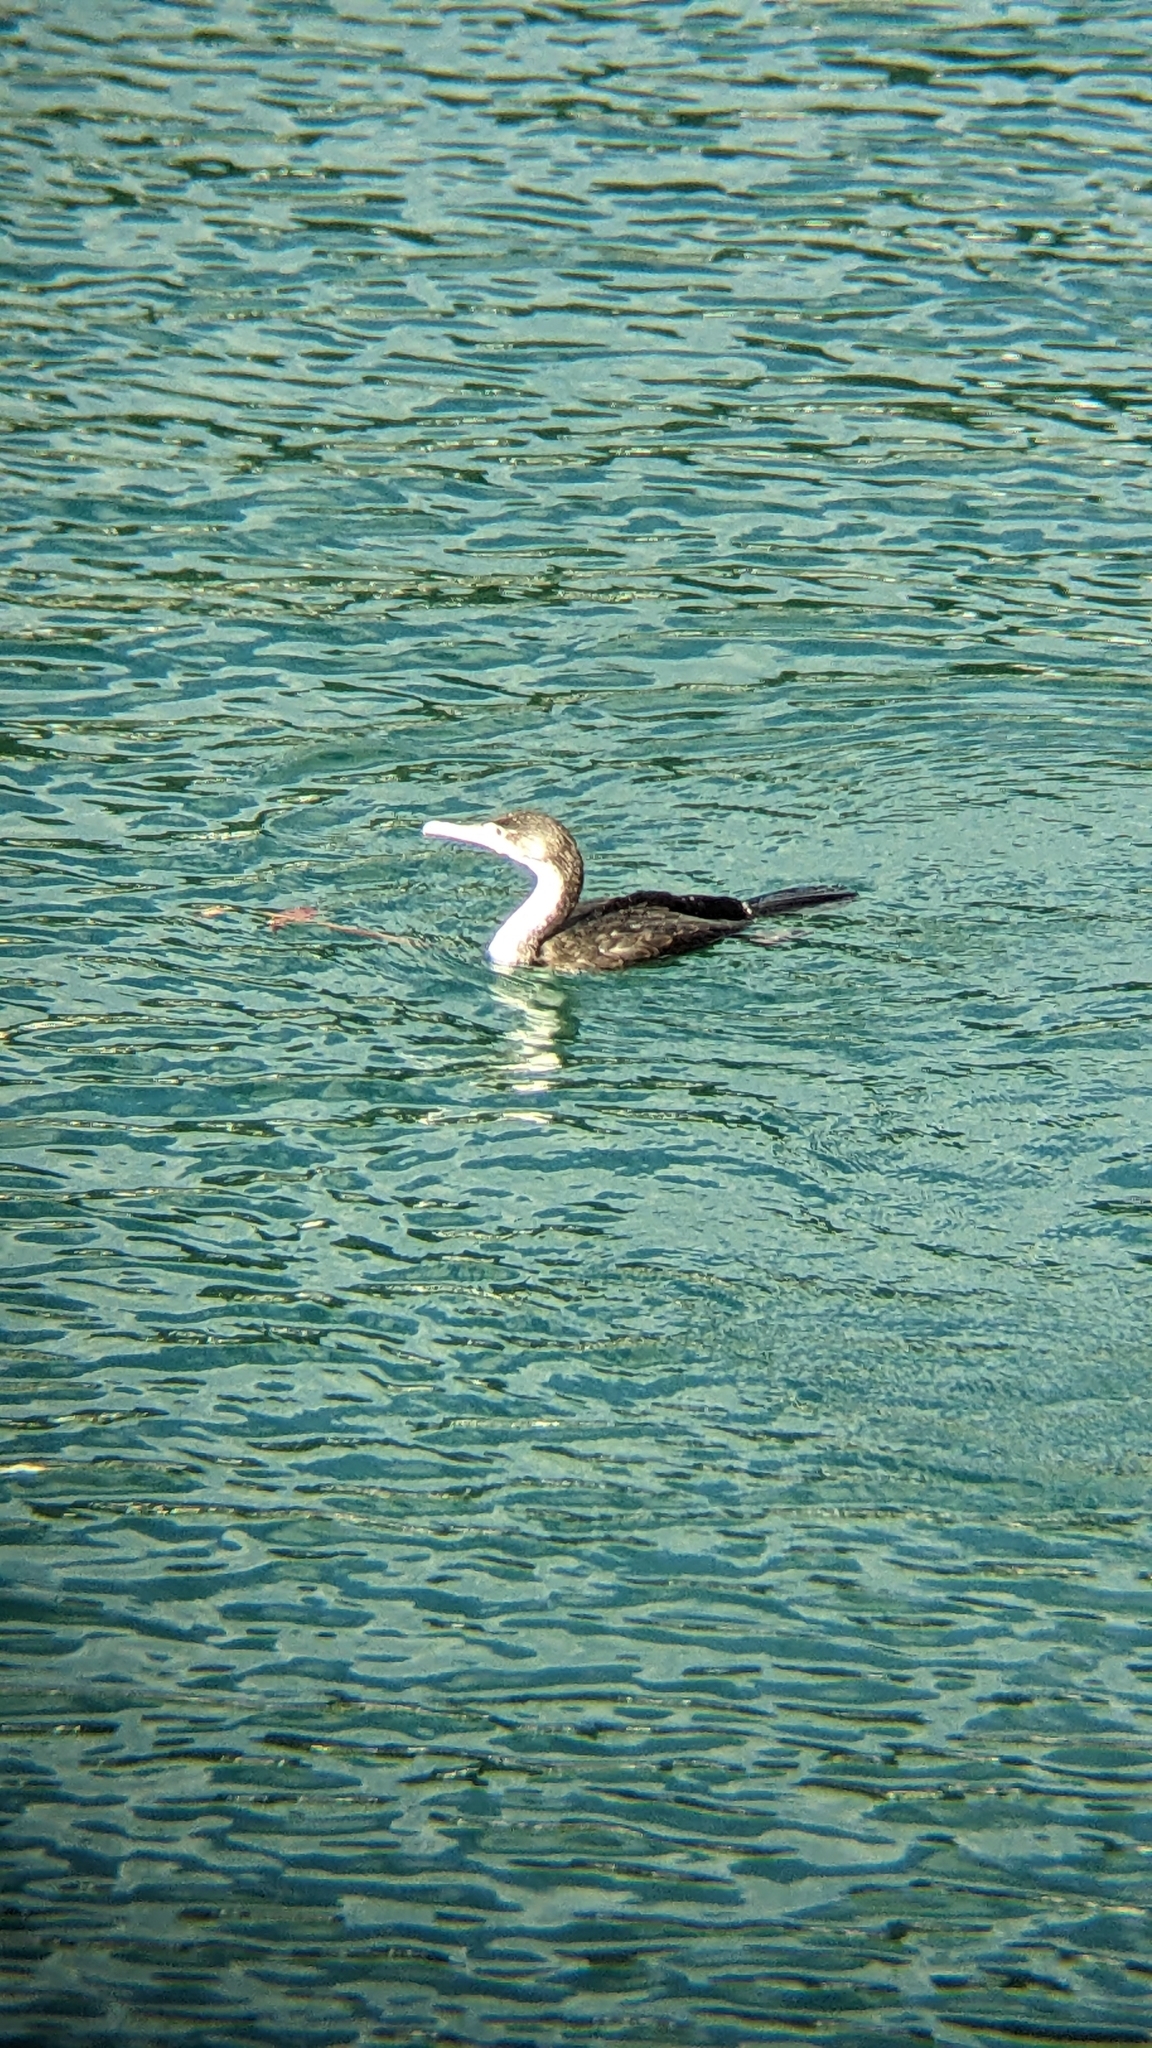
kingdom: Animalia
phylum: Chordata
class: Aves
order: Suliformes
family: Phalacrocoracidae
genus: Phalacrocorax
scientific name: Phalacrocorax varius
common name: Pied cormorant
